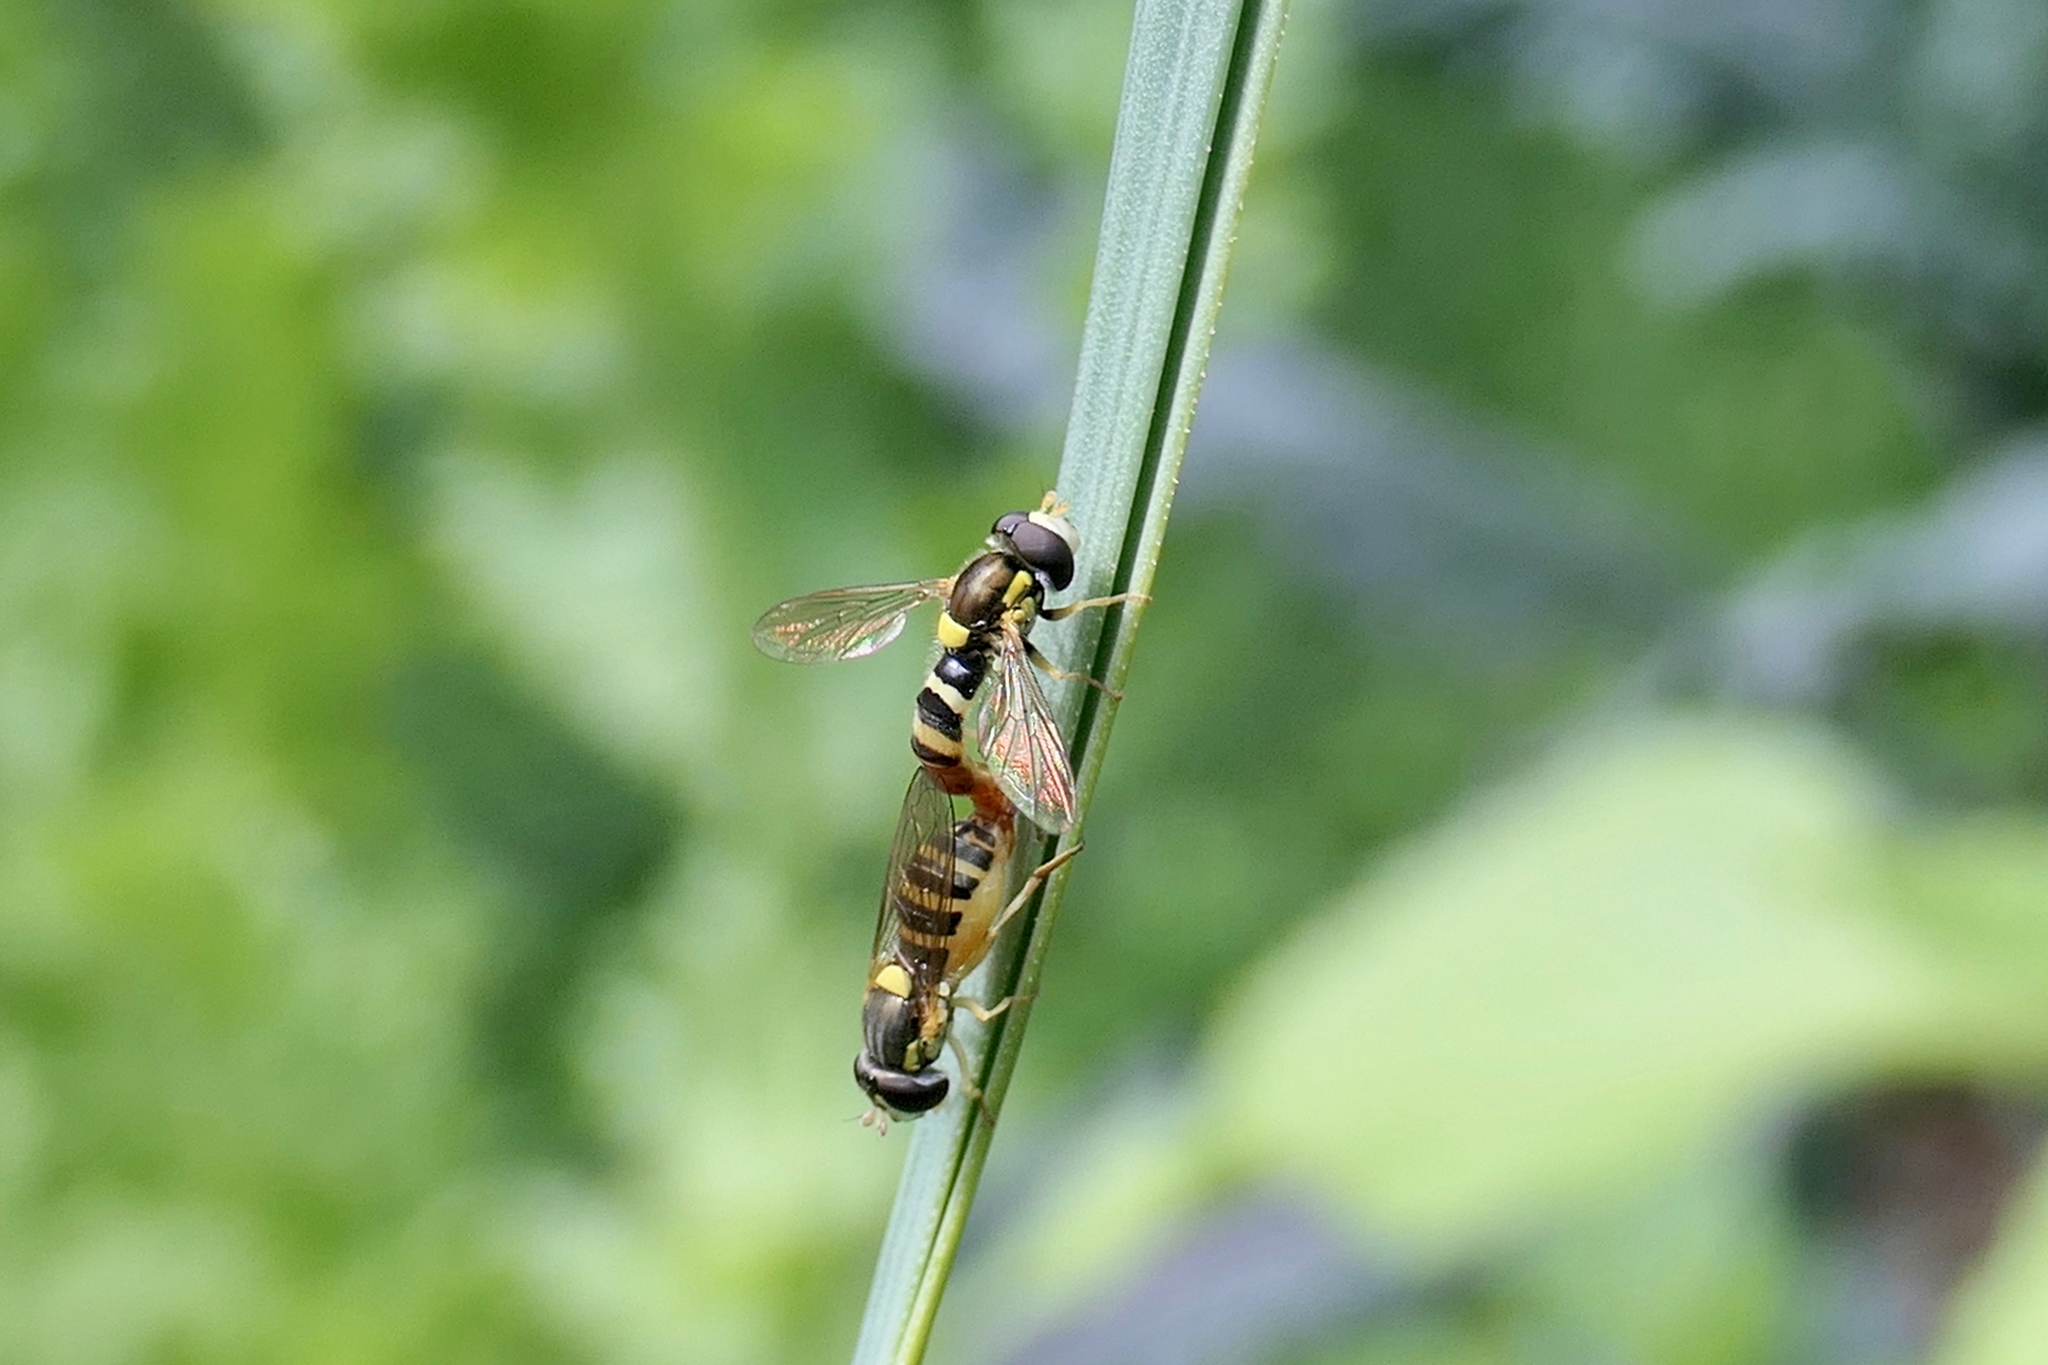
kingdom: Animalia
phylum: Arthropoda
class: Insecta
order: Diptera
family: Syrphidae
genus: Sphaerophoria
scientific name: Sphaerophoria sulphuripes
